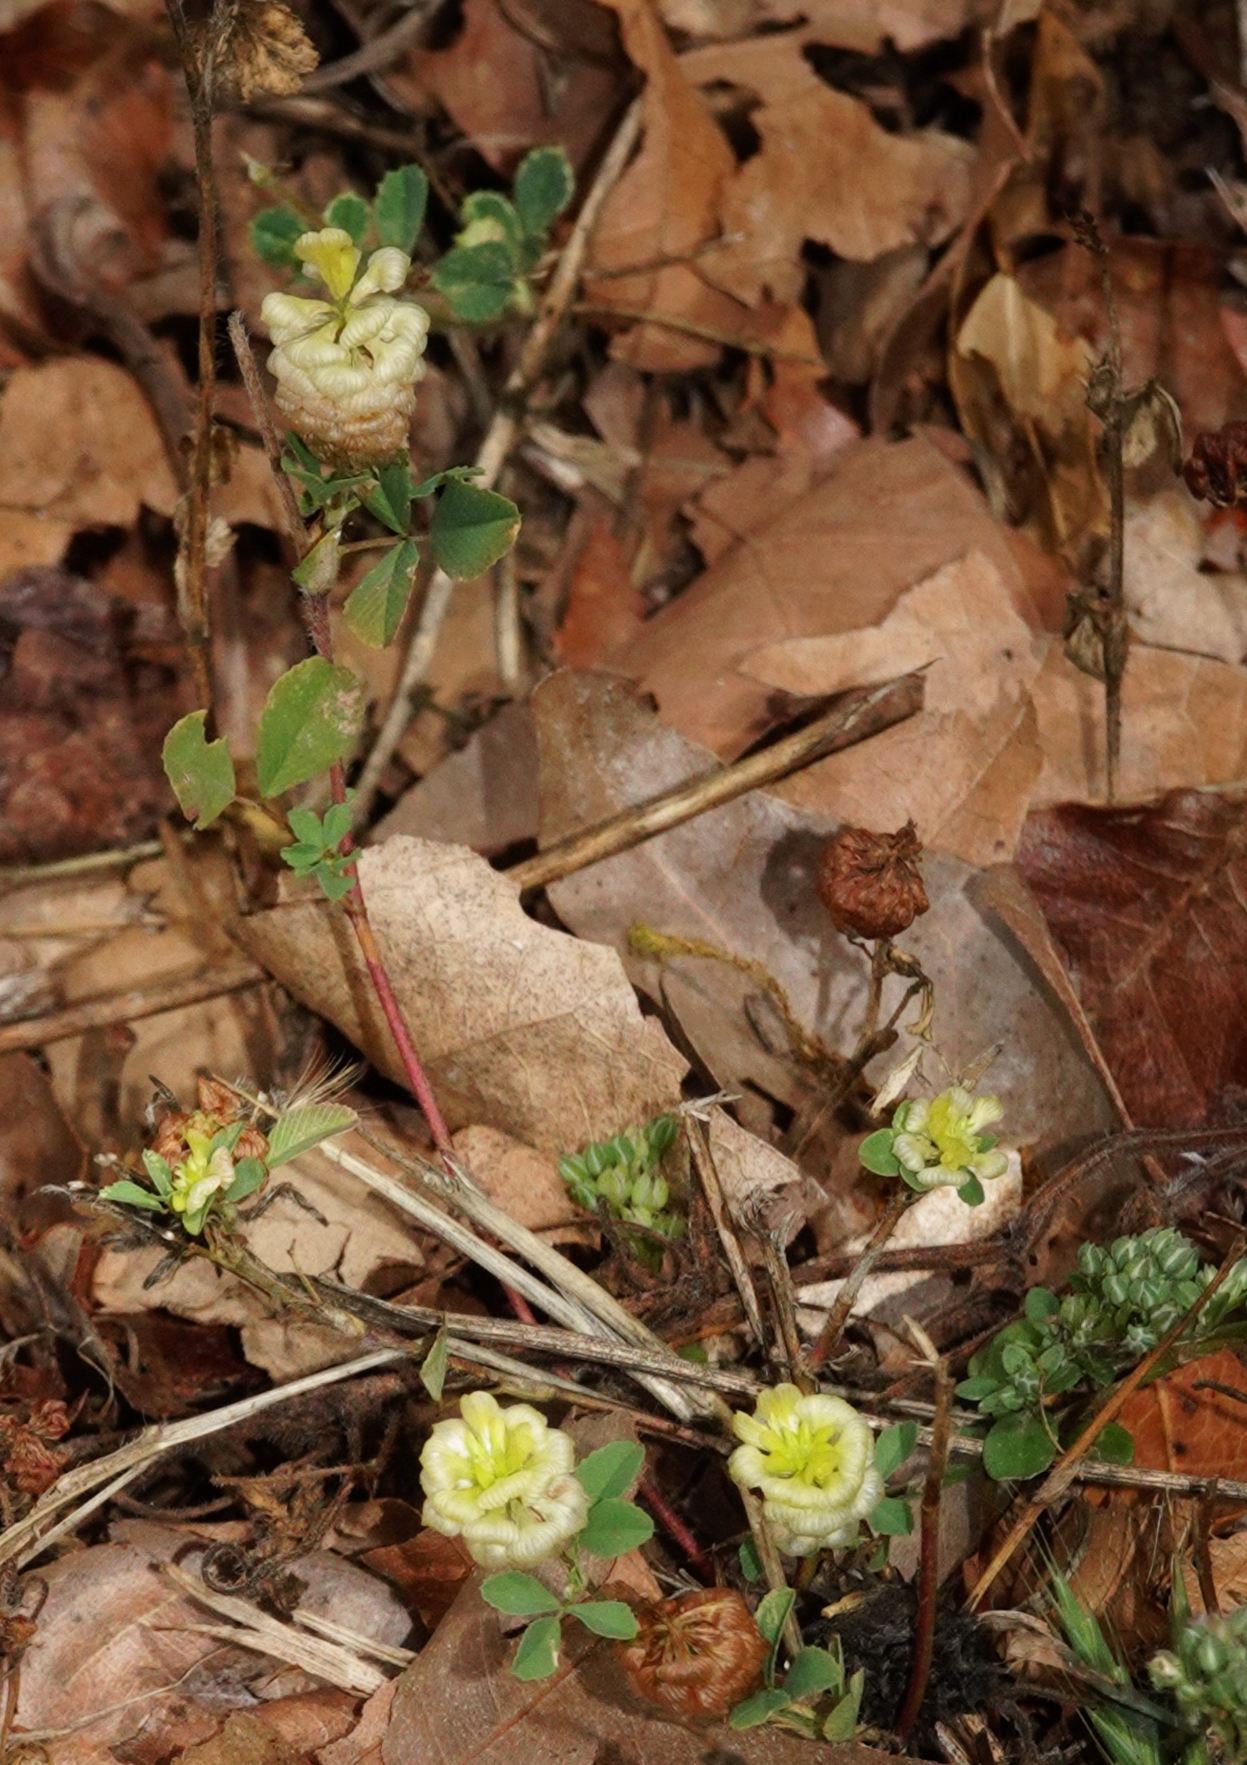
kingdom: Plantae
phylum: Tracheophyta
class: Magnoliopsida
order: Fabales
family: Fabaceae
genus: Trifolium
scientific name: Trifolium campestre
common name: Field clover
